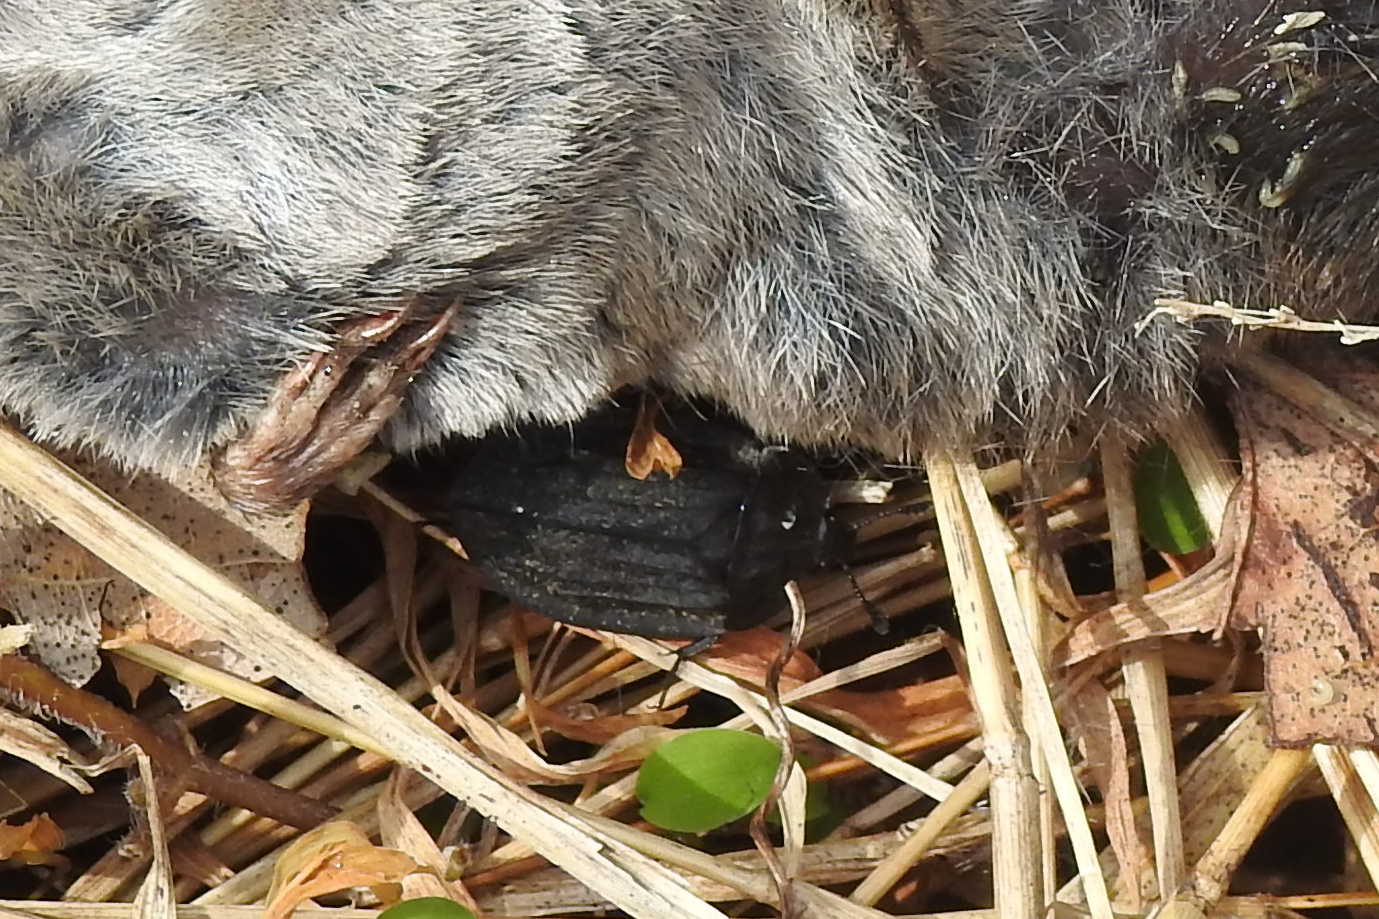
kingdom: Animalia
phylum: Arthropoda
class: Insecta
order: Coleoptera
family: Staphylinidae
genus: Oiceoptoma
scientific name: Oiceoptoma inaequale
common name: Ridged carrion beetle
